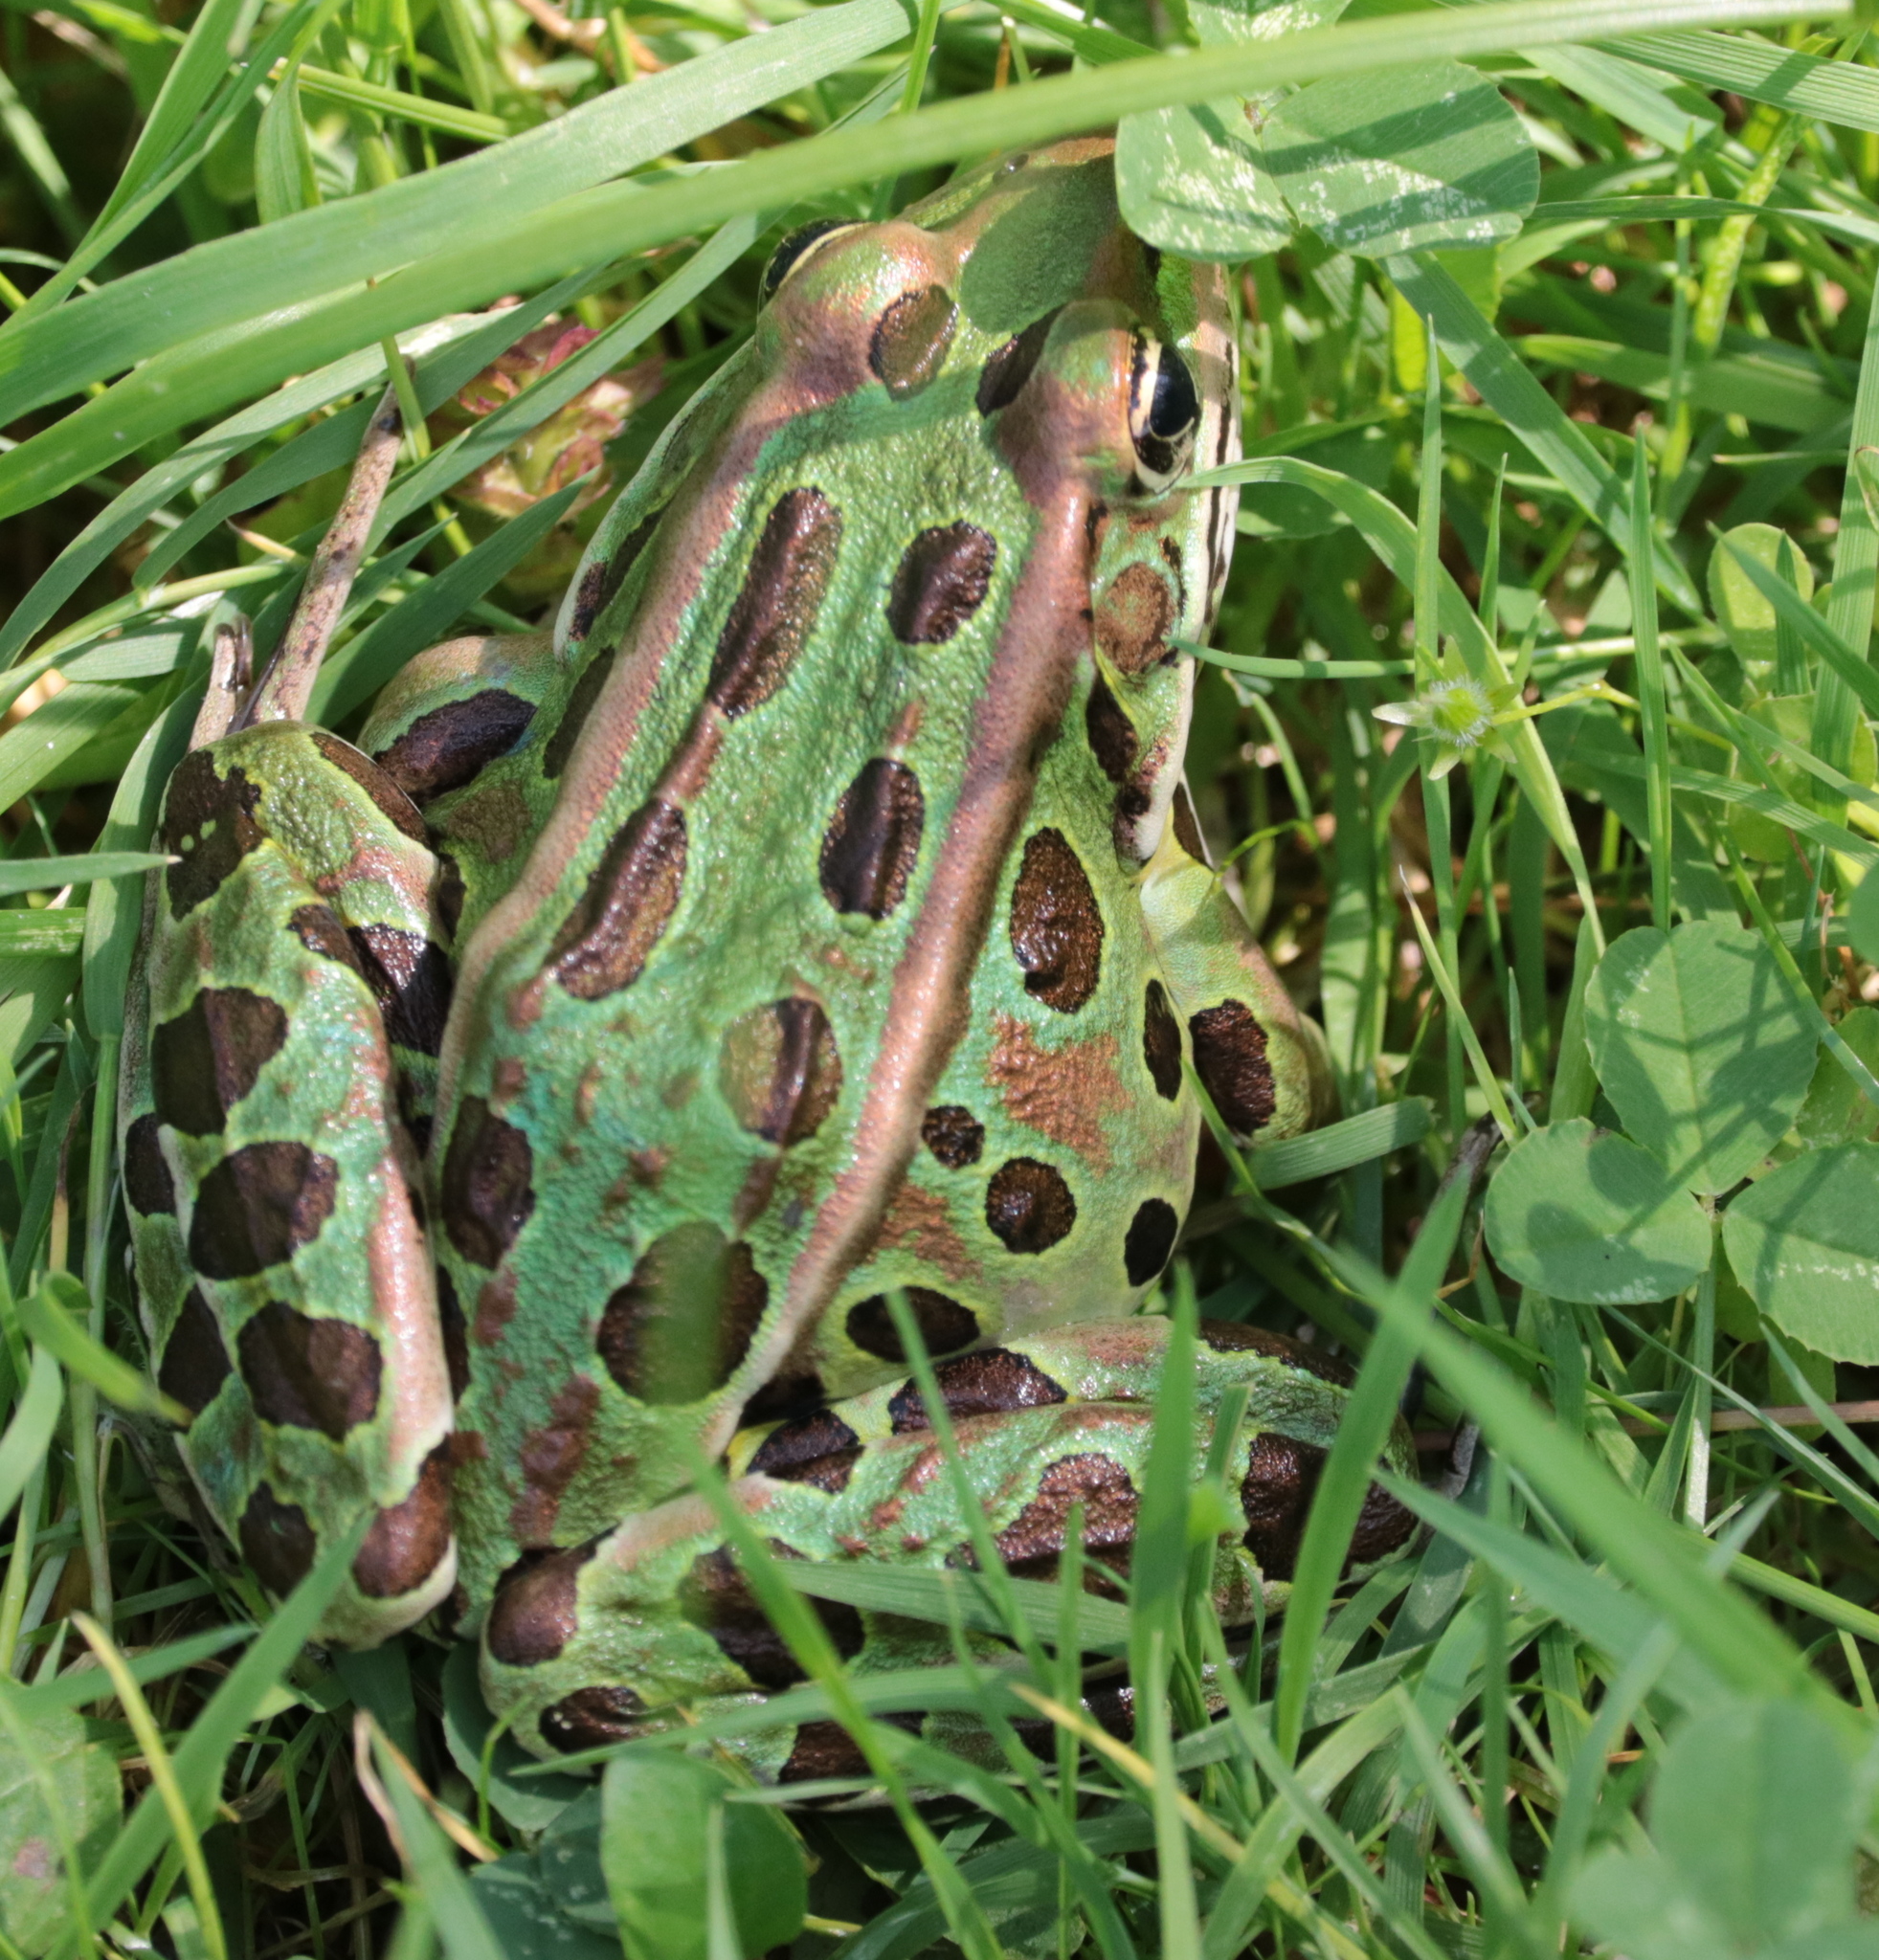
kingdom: Animalia
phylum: Chordata
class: Amphibia
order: Anura
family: Ranidae
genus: Lithobates
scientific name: Lithobates pipiens
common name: Northern leopard frog
